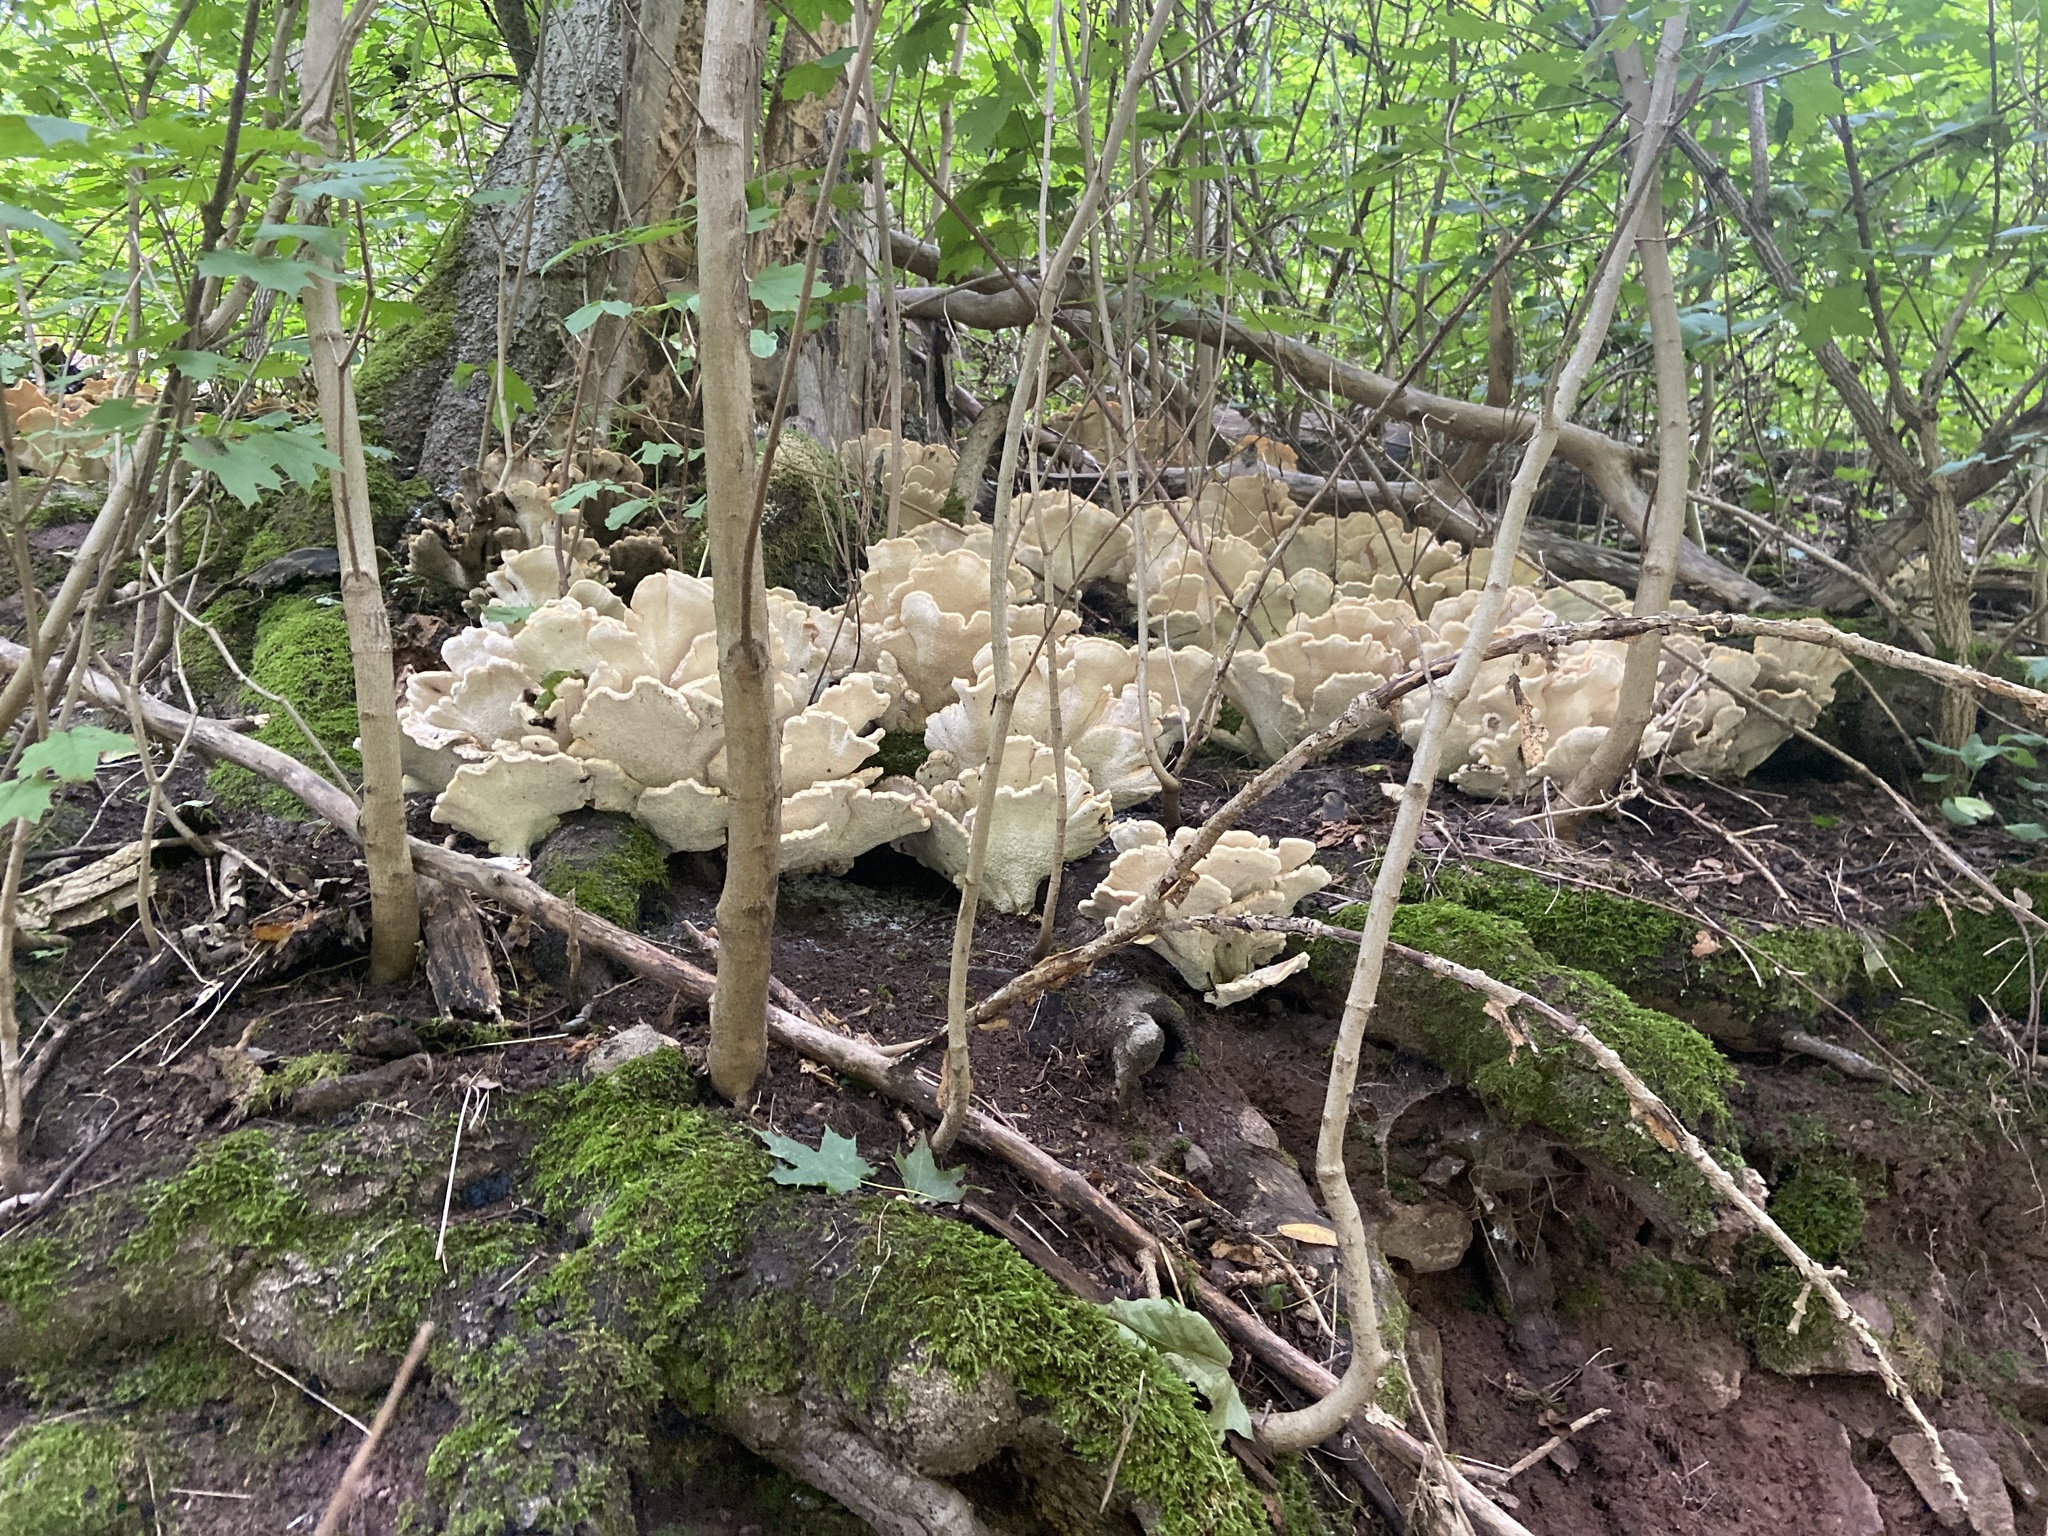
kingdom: Fungi
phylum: Basidiomycota
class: Agaricomycetes
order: Polyporales
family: Laetiporaceae
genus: Laetiporus
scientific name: Laetiporus sulphureus
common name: Chicken of the woods
